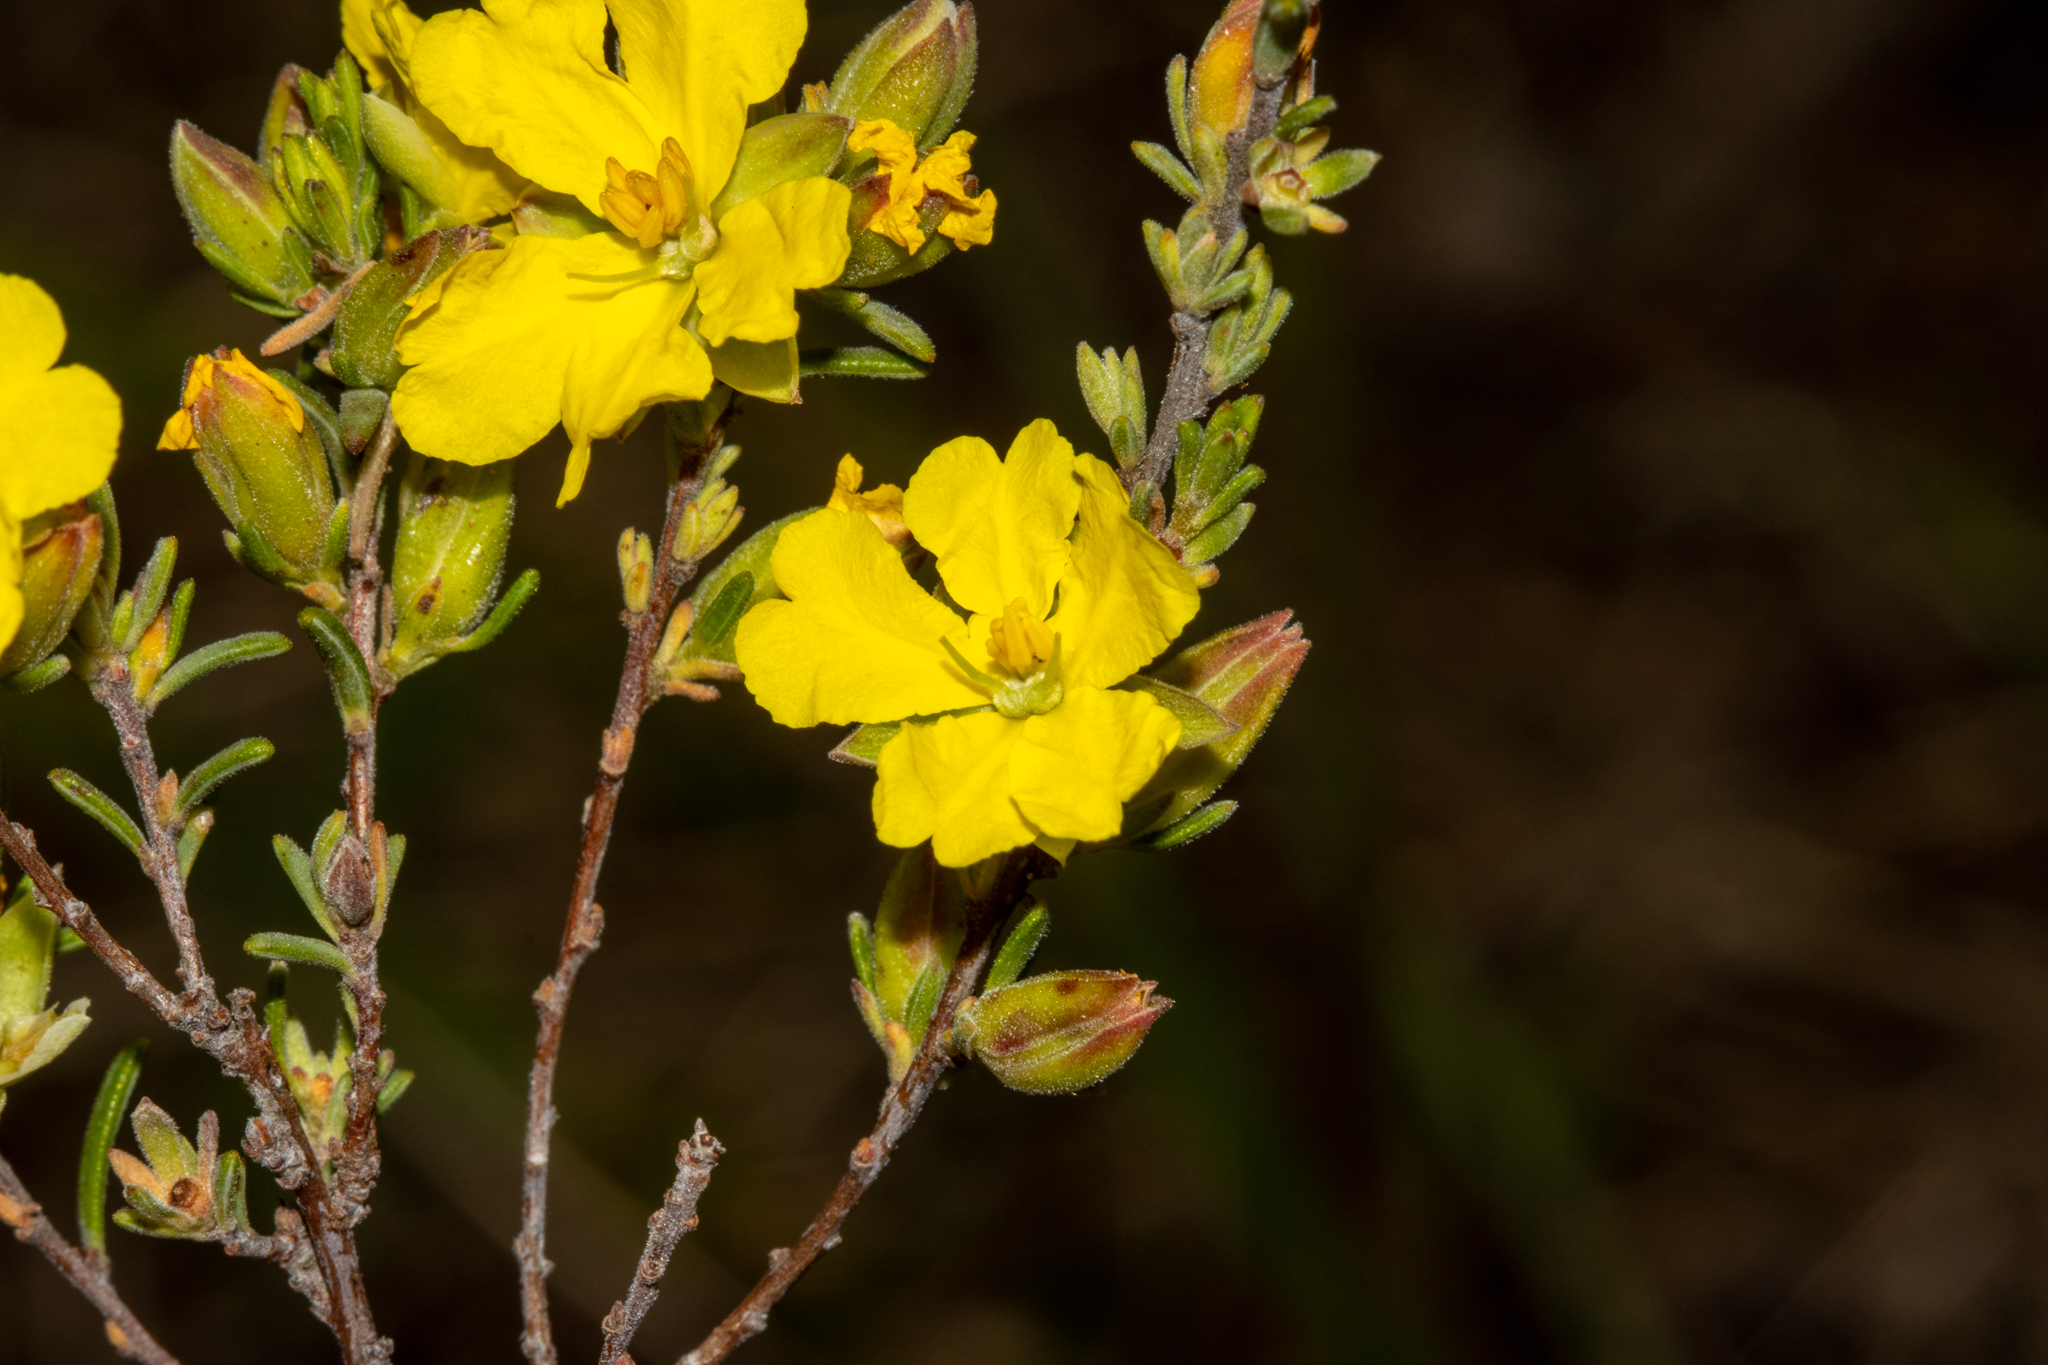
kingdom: Plantae
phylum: Tracheophyta
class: Magnoliopsida
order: Dilleniales
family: Dilleniaceae
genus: Hibbertia
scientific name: Hibbertia devitata
